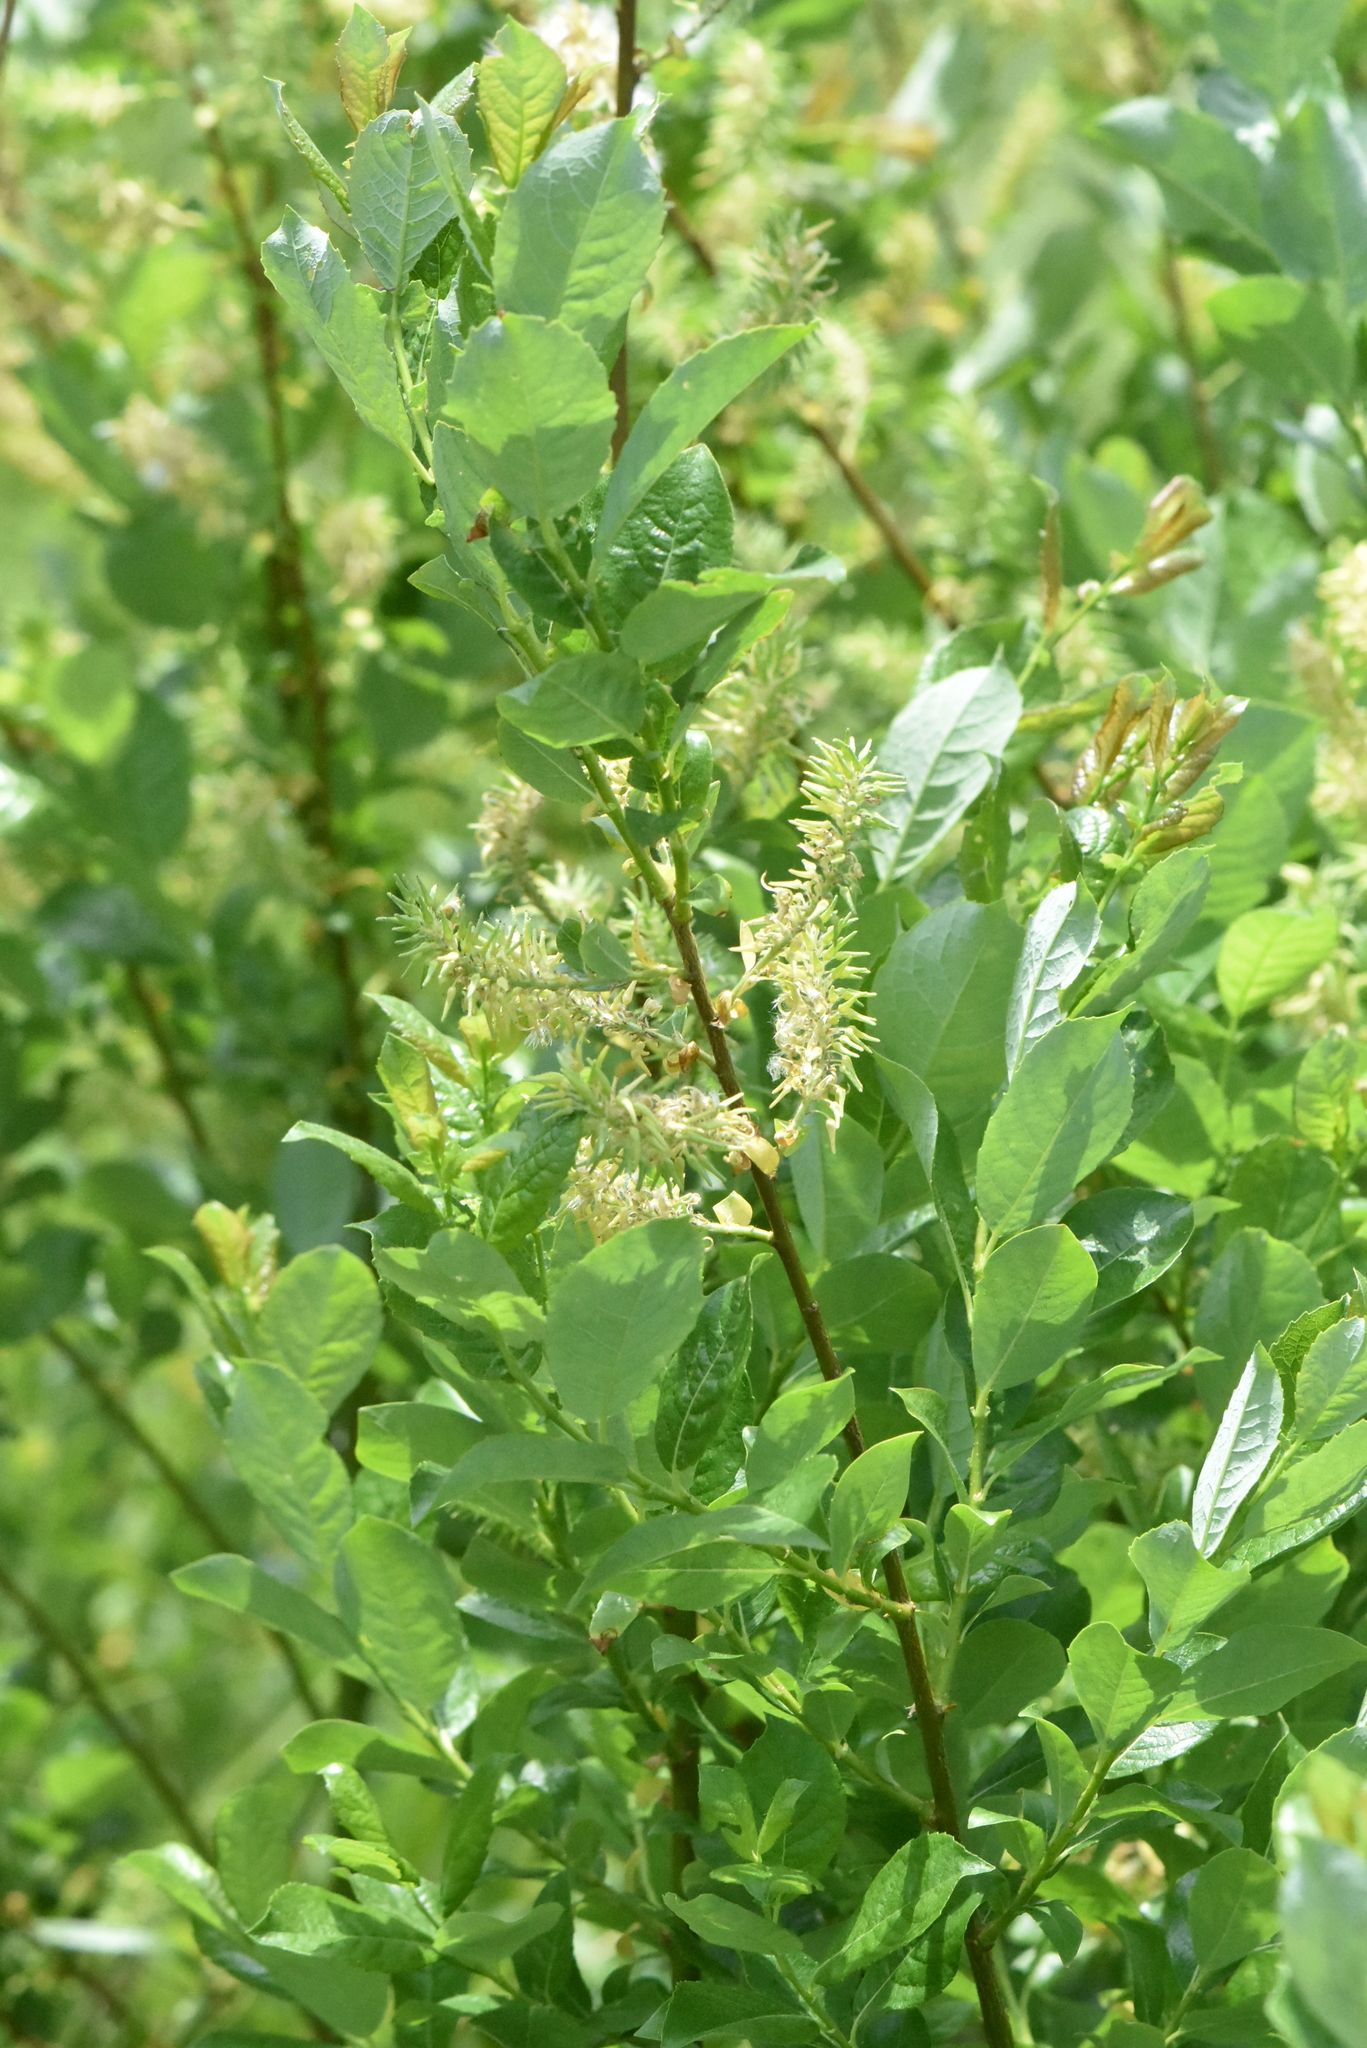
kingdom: Plantae
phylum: Tracheophyta
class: Magnoliopsida
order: Malpighiales
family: Salicaceae
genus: Salix
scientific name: Salix starkeana
